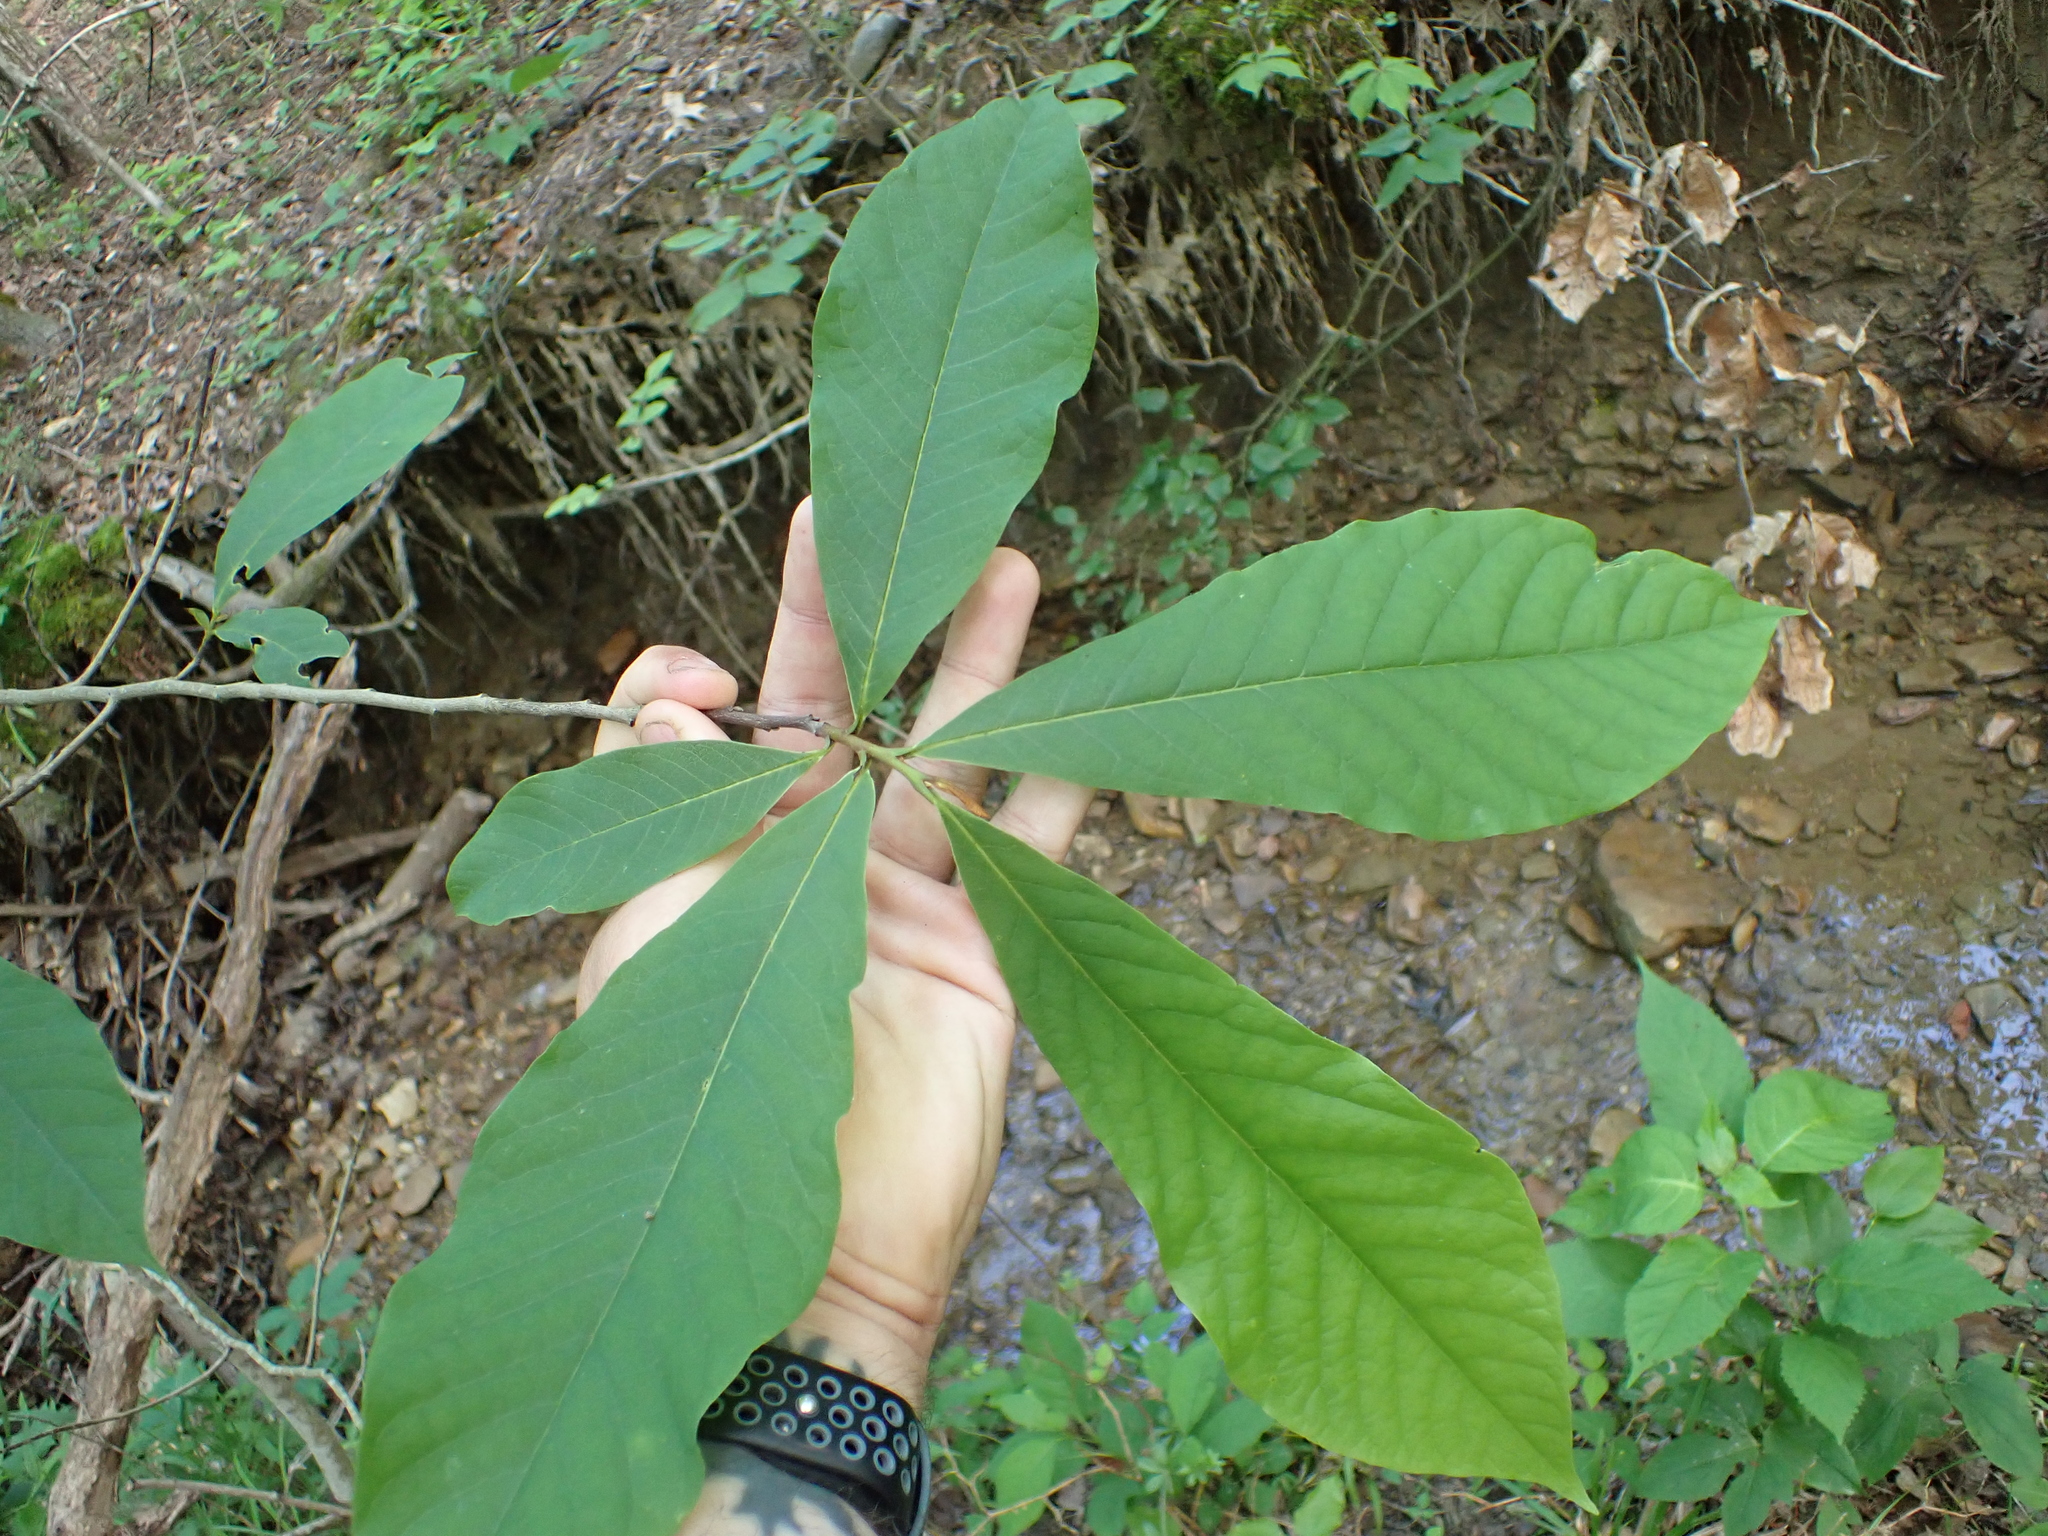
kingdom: Plantae
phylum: Tracheophyta
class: Magnoliopsida
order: Magnoliales
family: Annonaceae
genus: Asimina
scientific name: Asimina triloba
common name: Dog-banana
